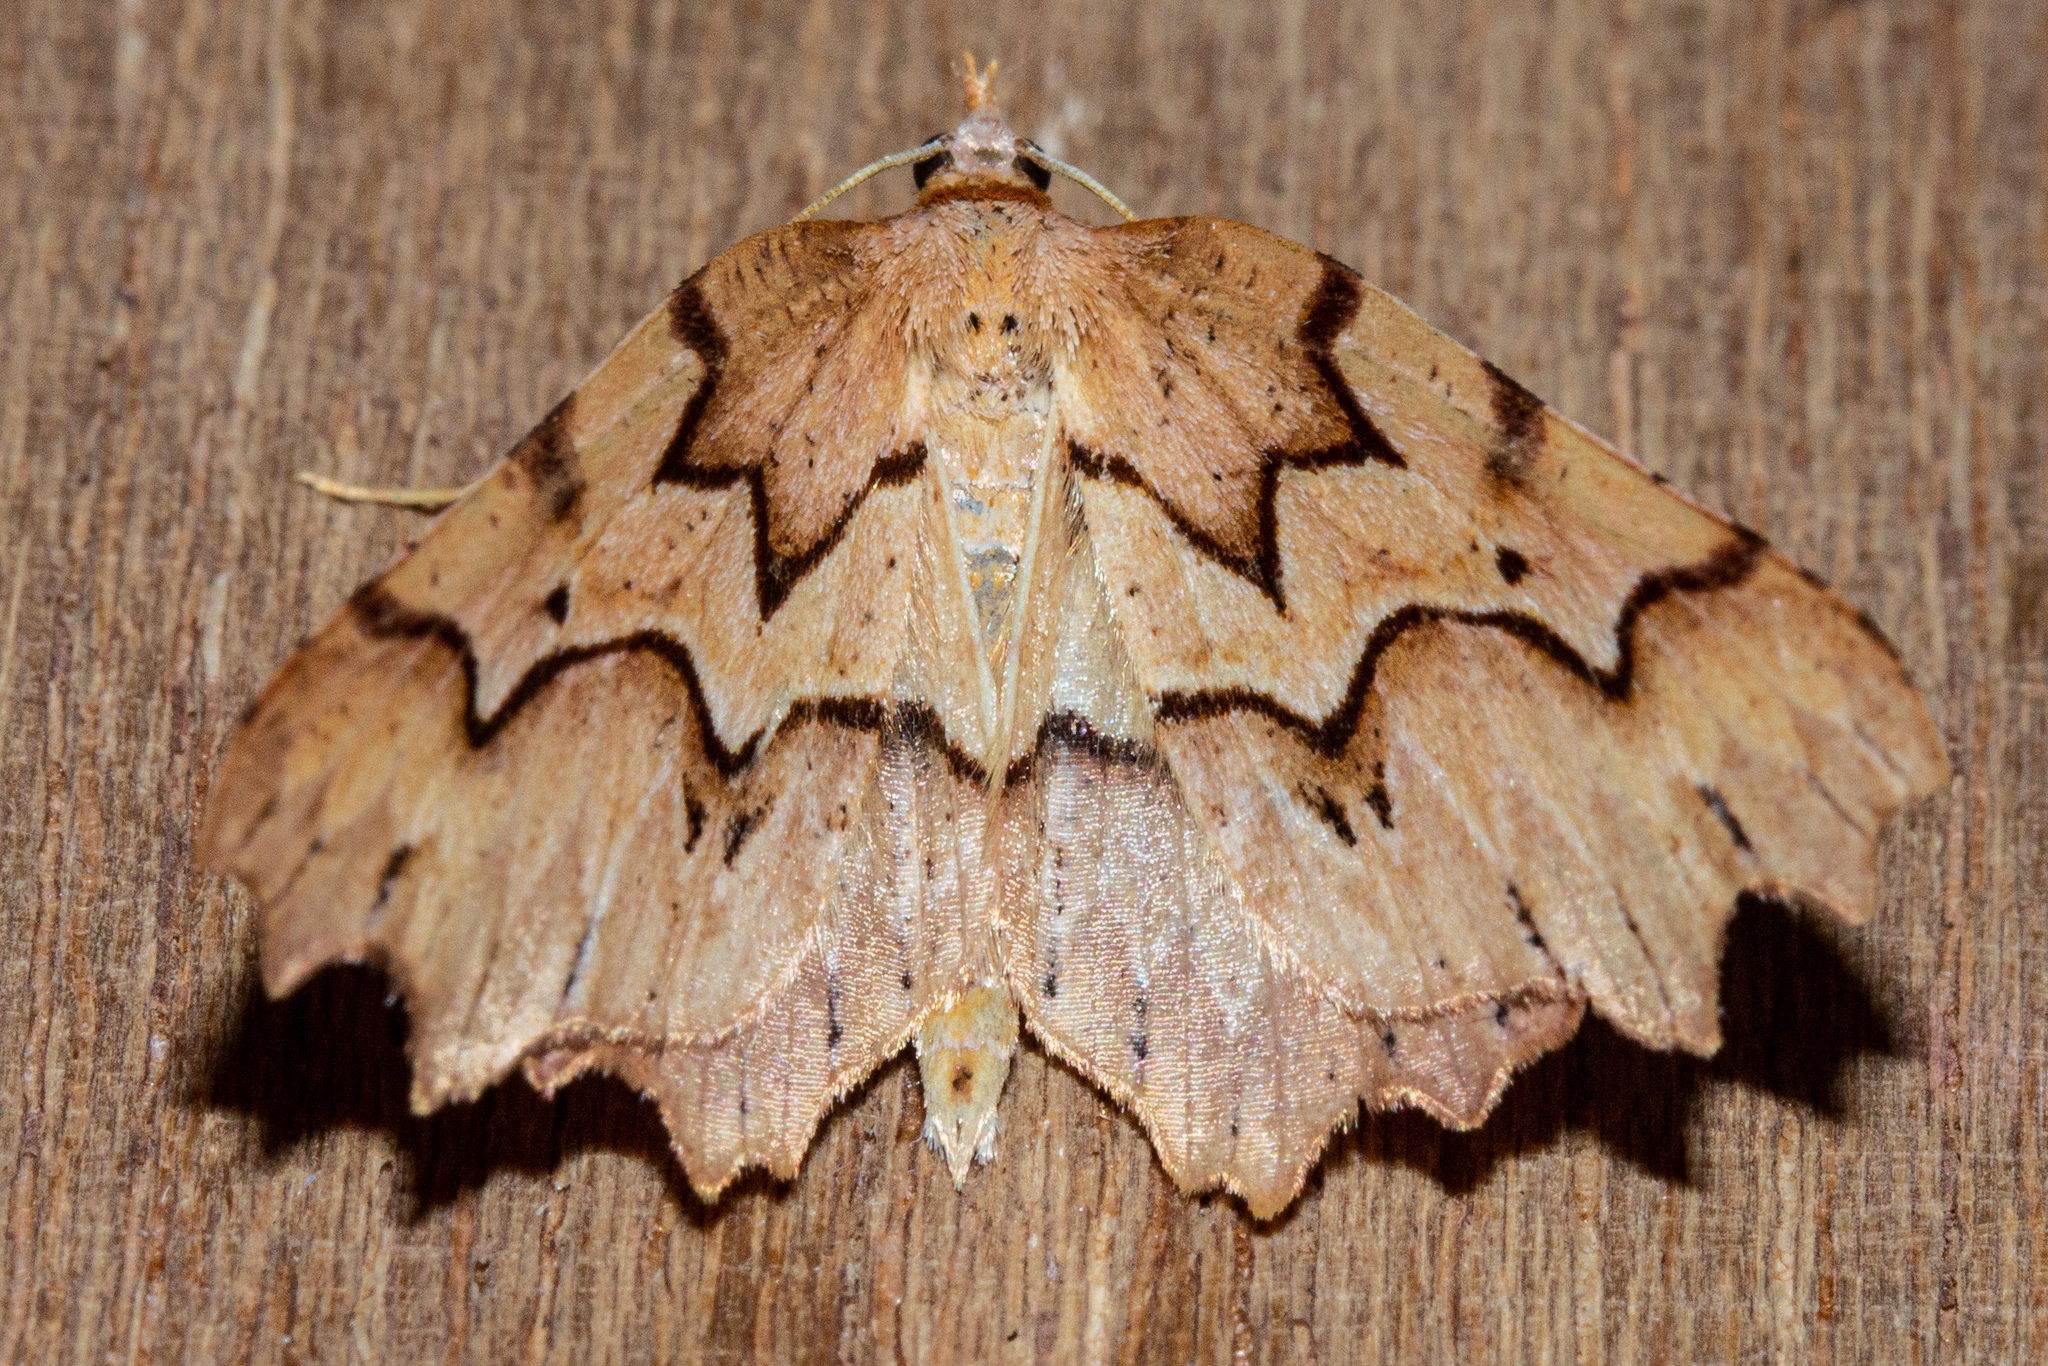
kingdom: Animalia
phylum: Arthropoda
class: Insecta
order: Lepidoptera
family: Geometridae
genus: Ischalis
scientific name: Ischalis fortinata
